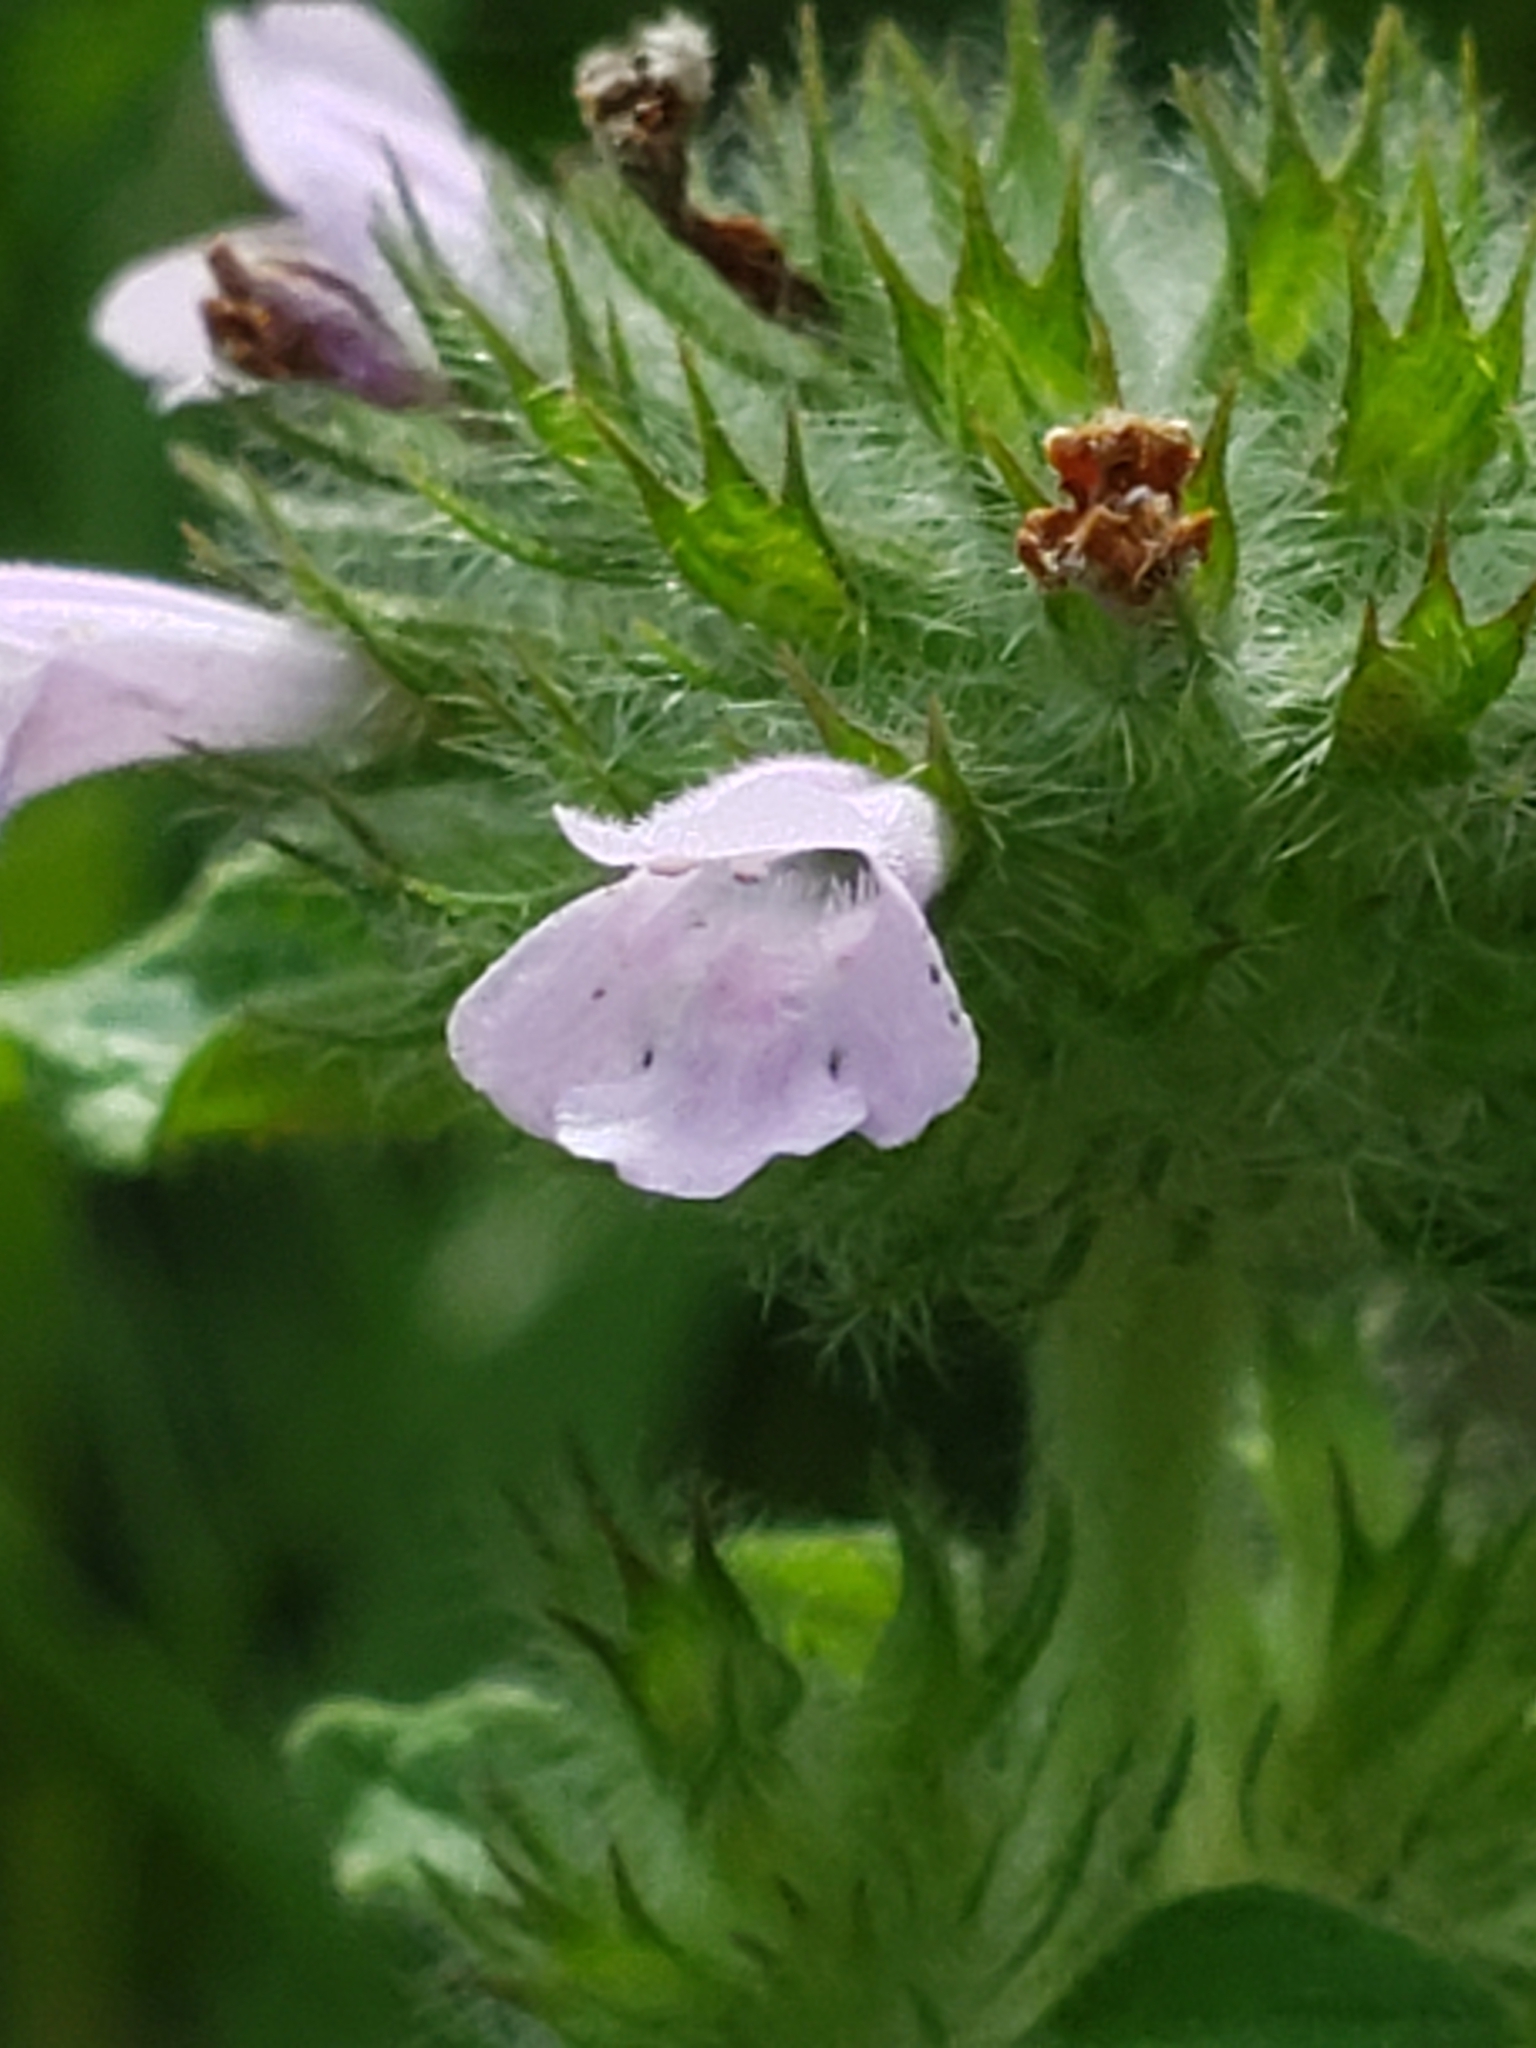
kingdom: Plantae
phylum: Tracheophyta
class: Magnoliopsida
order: Lamiales
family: Lamiaceae
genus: Clinopodium
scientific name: Clinopodium vulgare
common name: Wild basil
